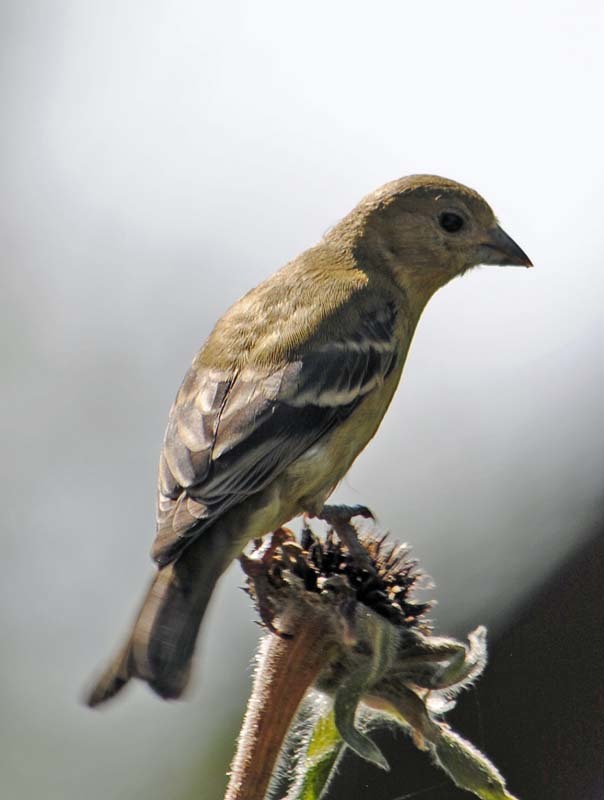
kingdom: Animalia
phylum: Chordata
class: Aves
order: Passeriformes
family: Fringillidae
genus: Spinus
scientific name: Spinus psaltria
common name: Lesser goldfinch
